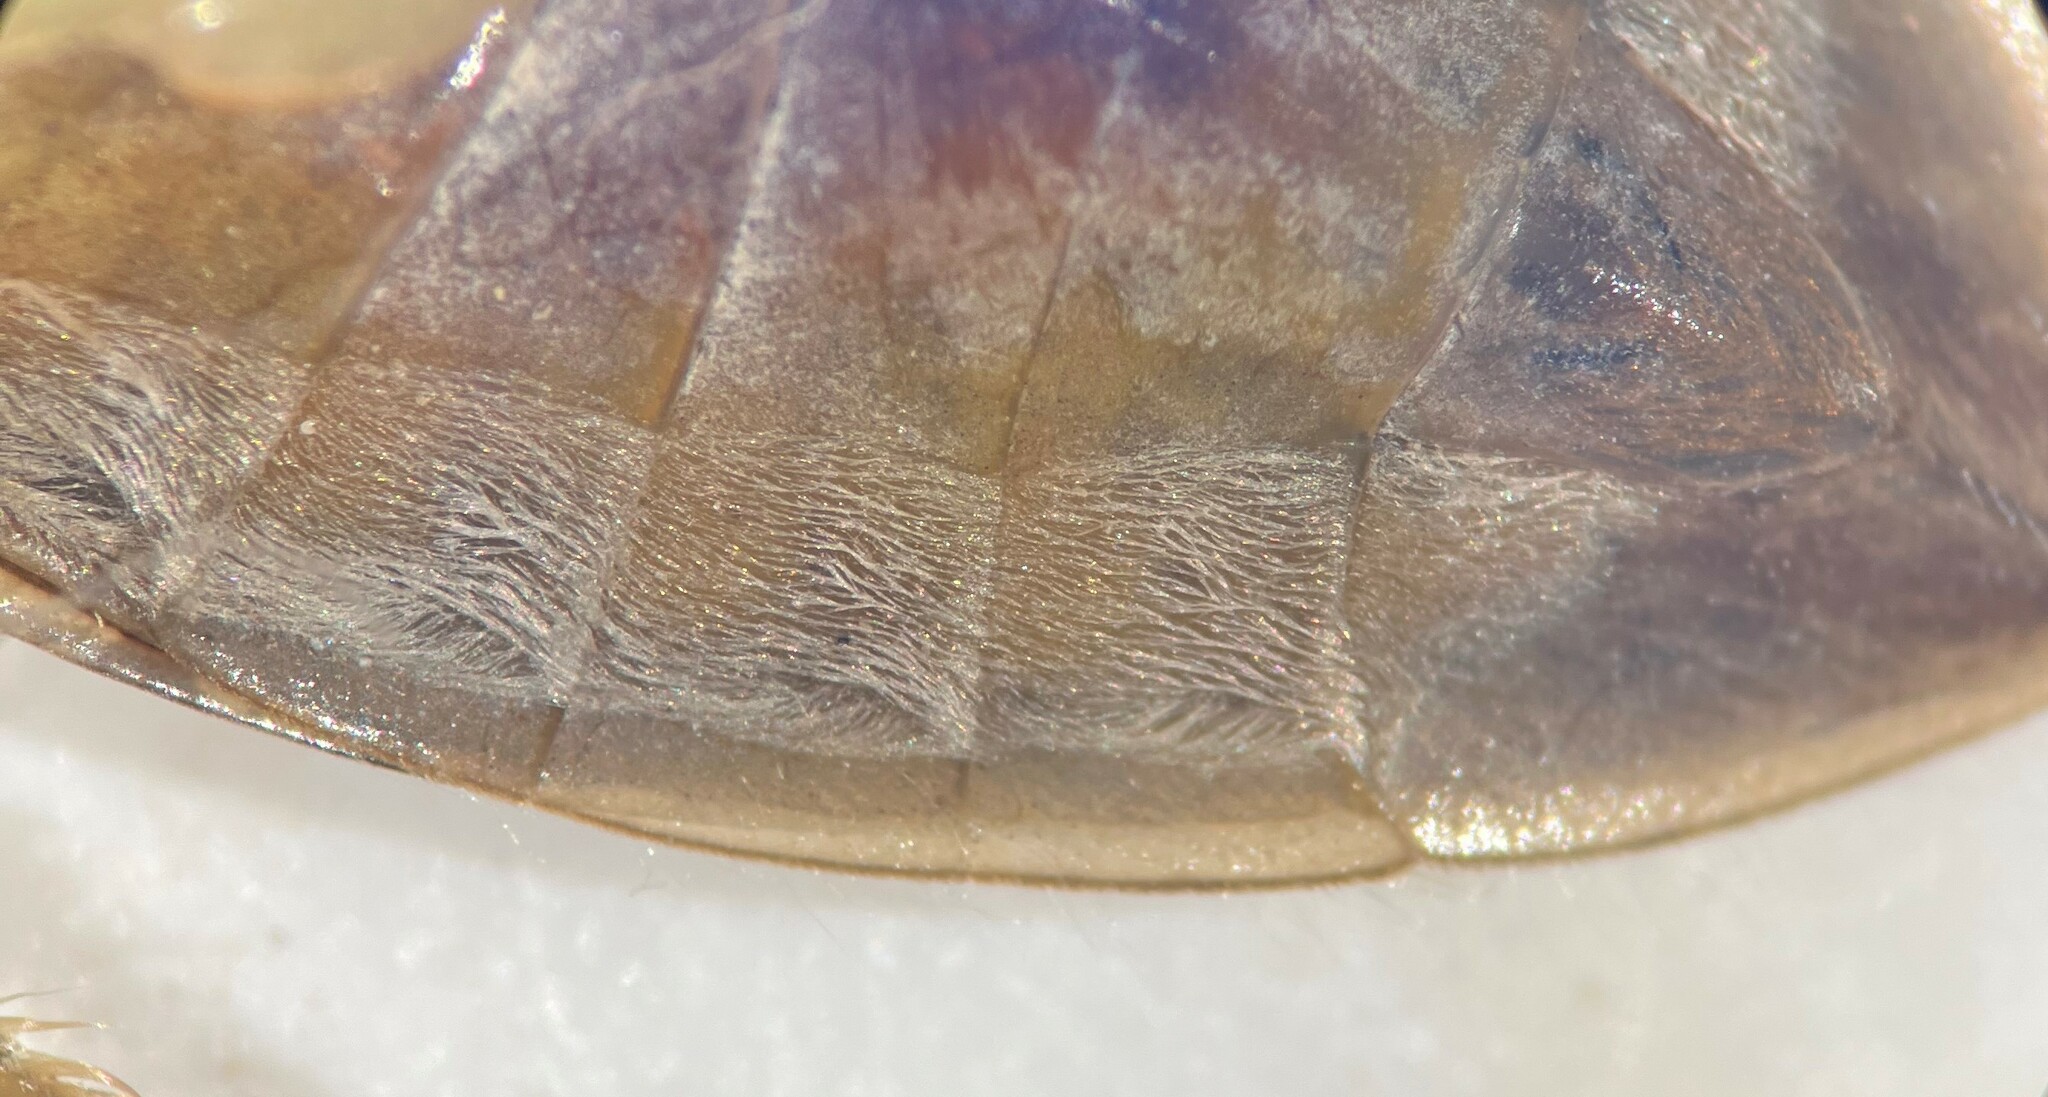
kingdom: Animalia
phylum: Arthropoda
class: Insecta
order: Hemiptera
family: Belostomatidae
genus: Belostoma
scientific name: Belostoma flumineum
